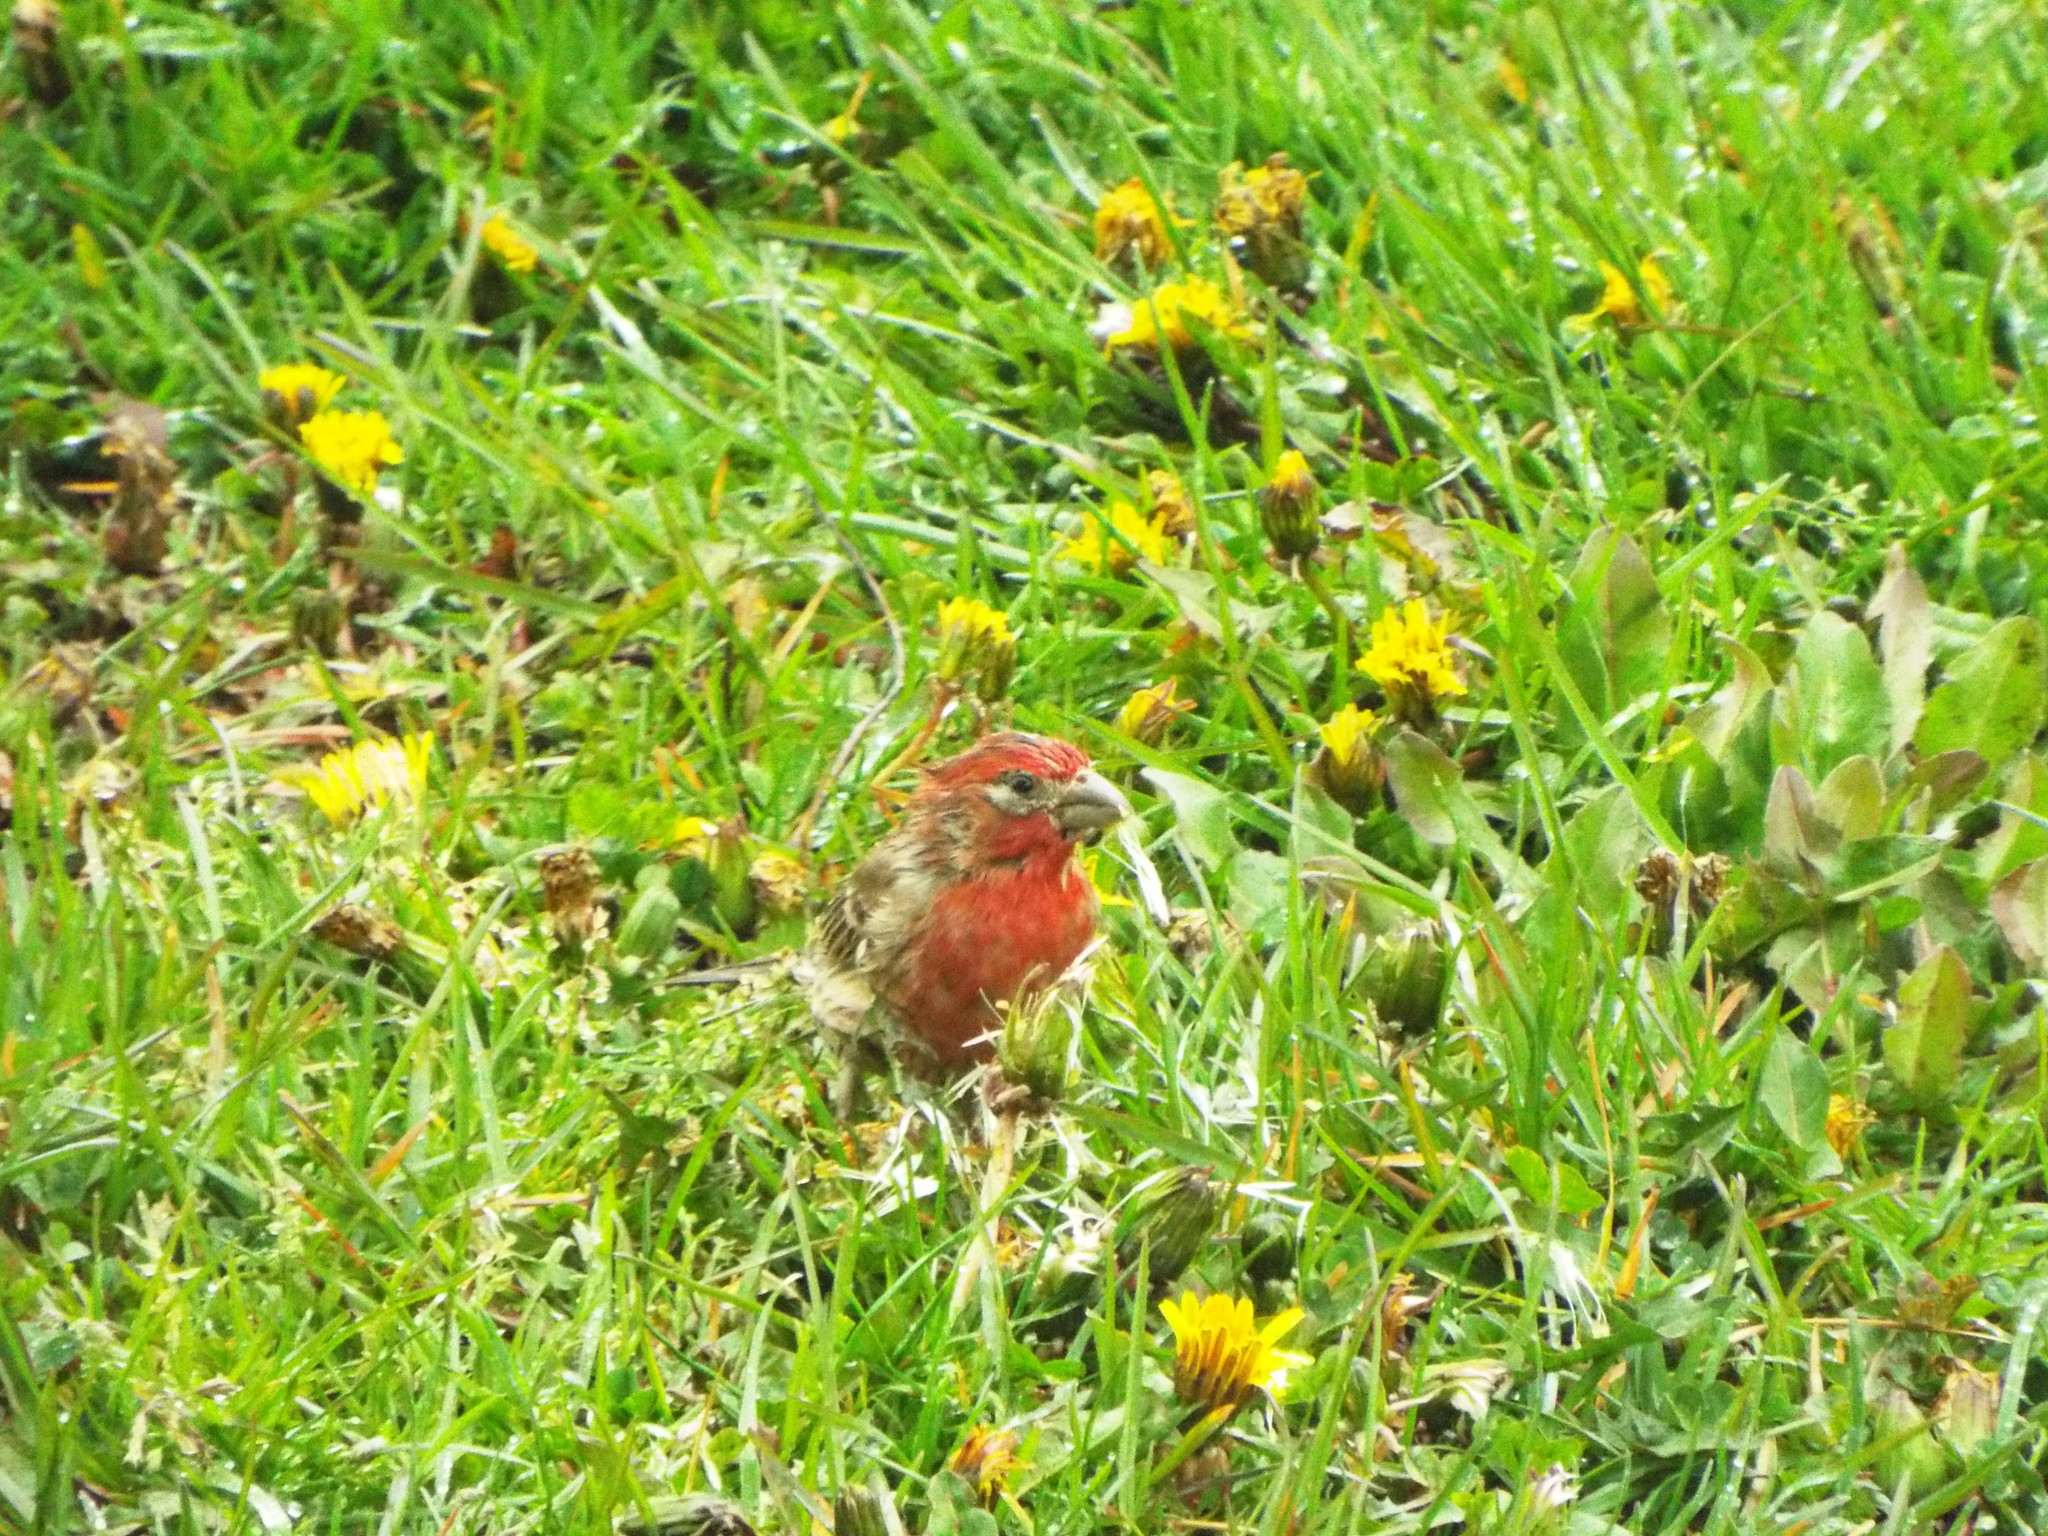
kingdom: Animalia
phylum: Chordata
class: Aves
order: Passeriformes
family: Fringillidae
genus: Haemorhous
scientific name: Haemorhous mexicanus
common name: House finch
